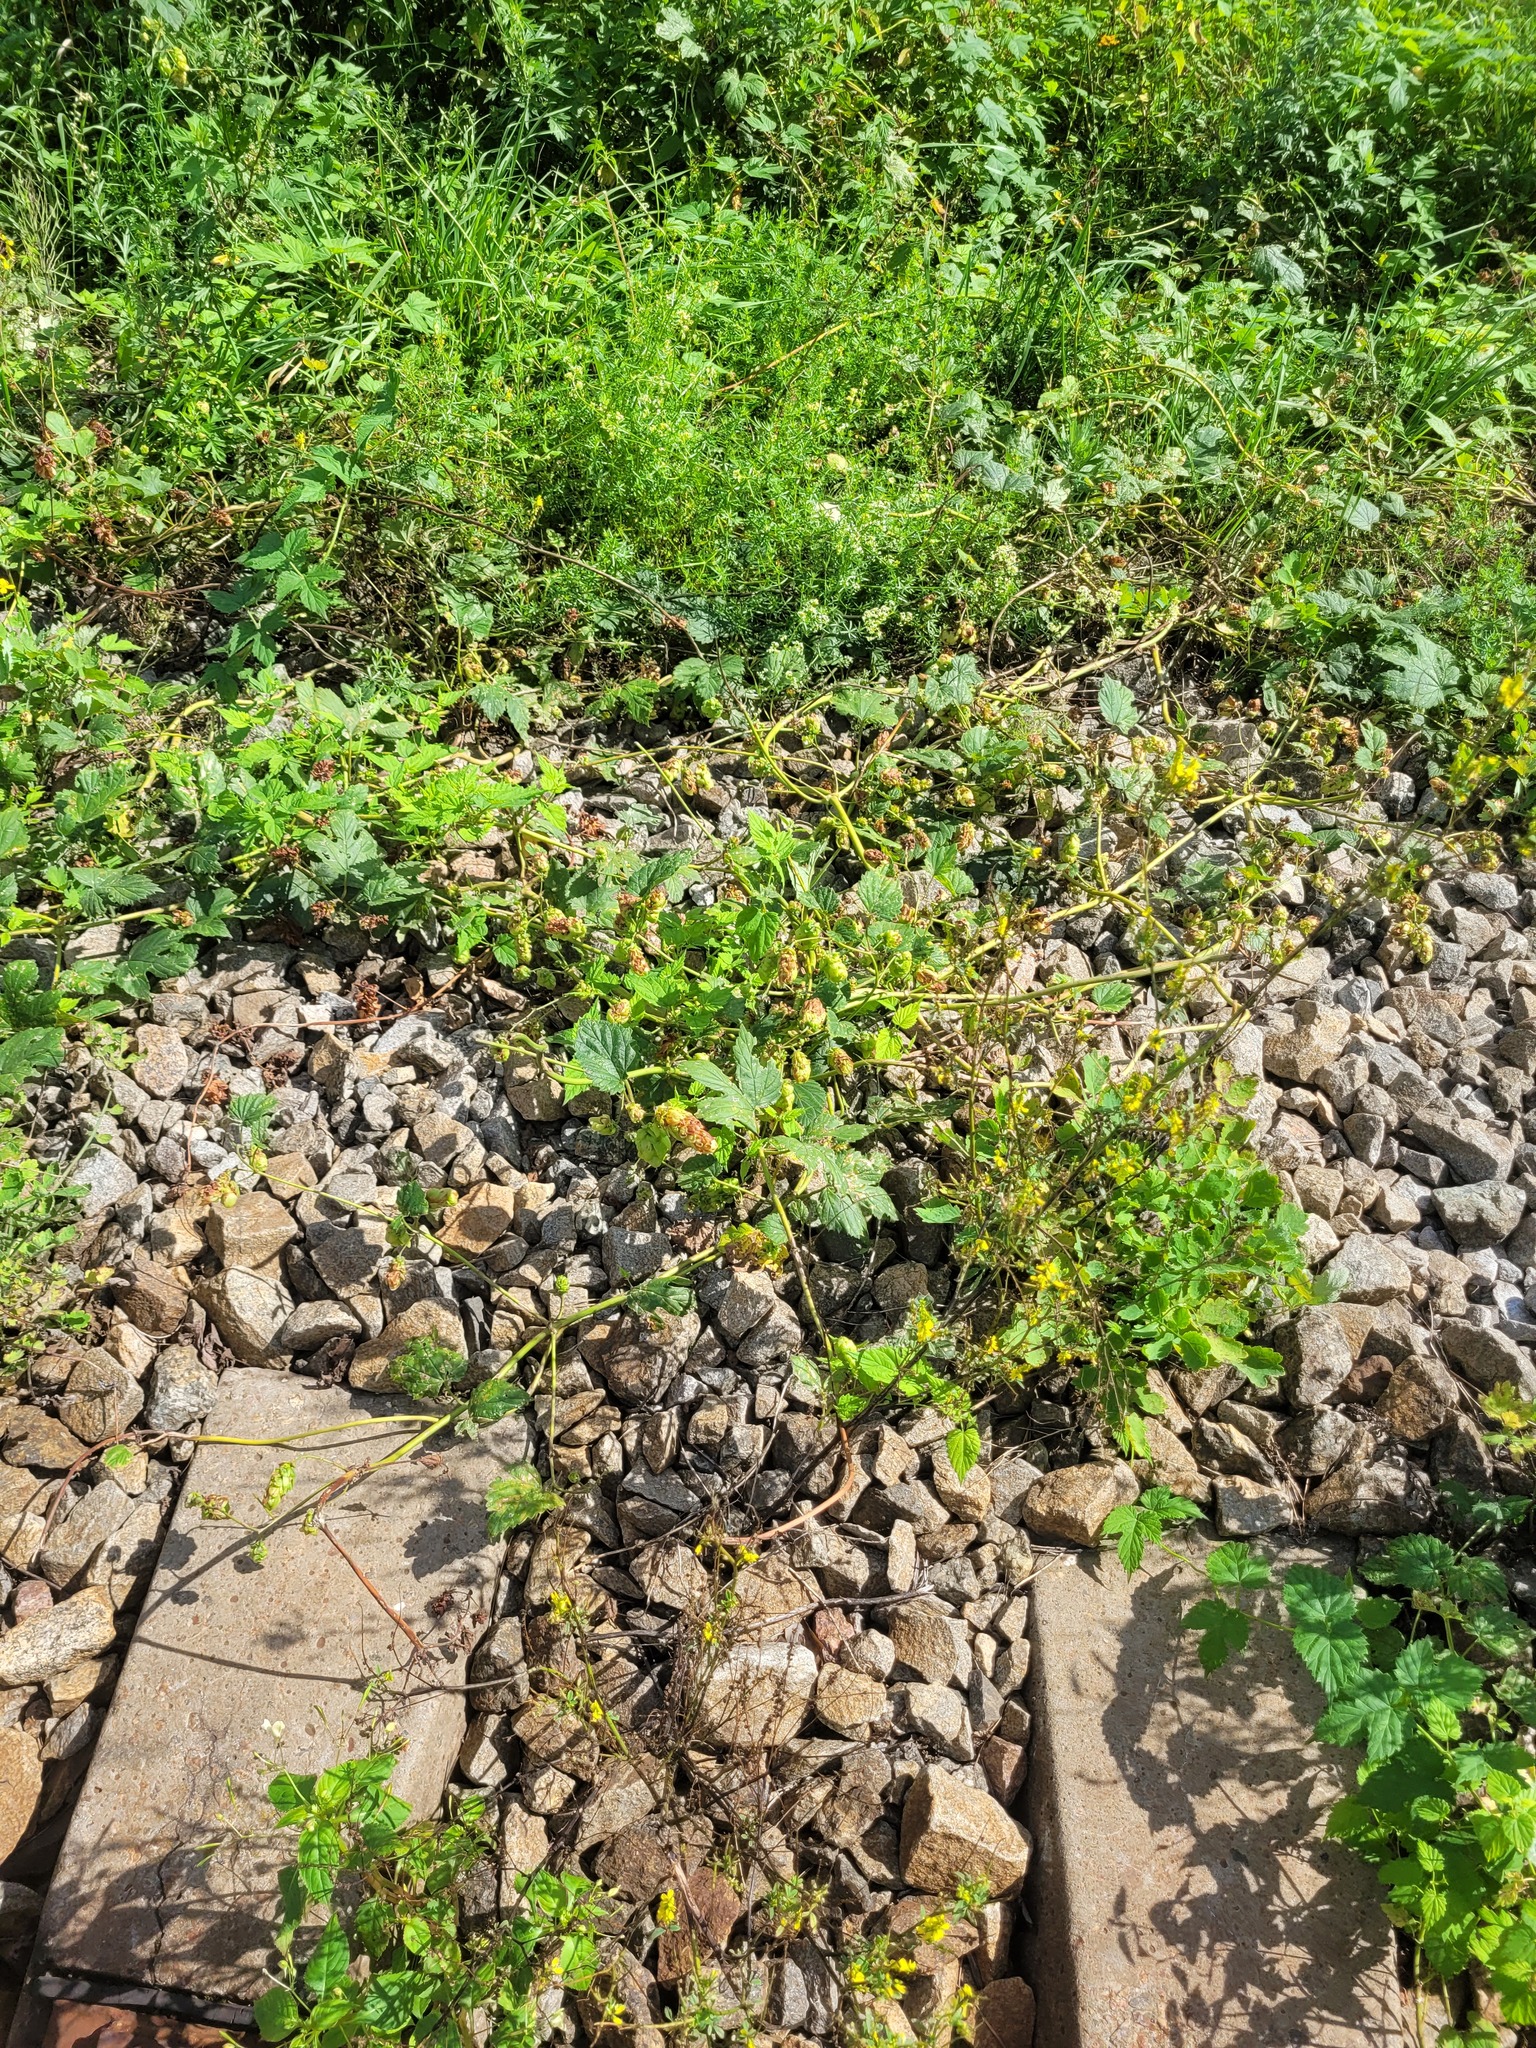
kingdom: Plantae
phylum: Tracheophyta
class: Magnoliopsida
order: Rosales
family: Cannabaceae
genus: Humulus
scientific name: Humulus lupulus
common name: Hop
